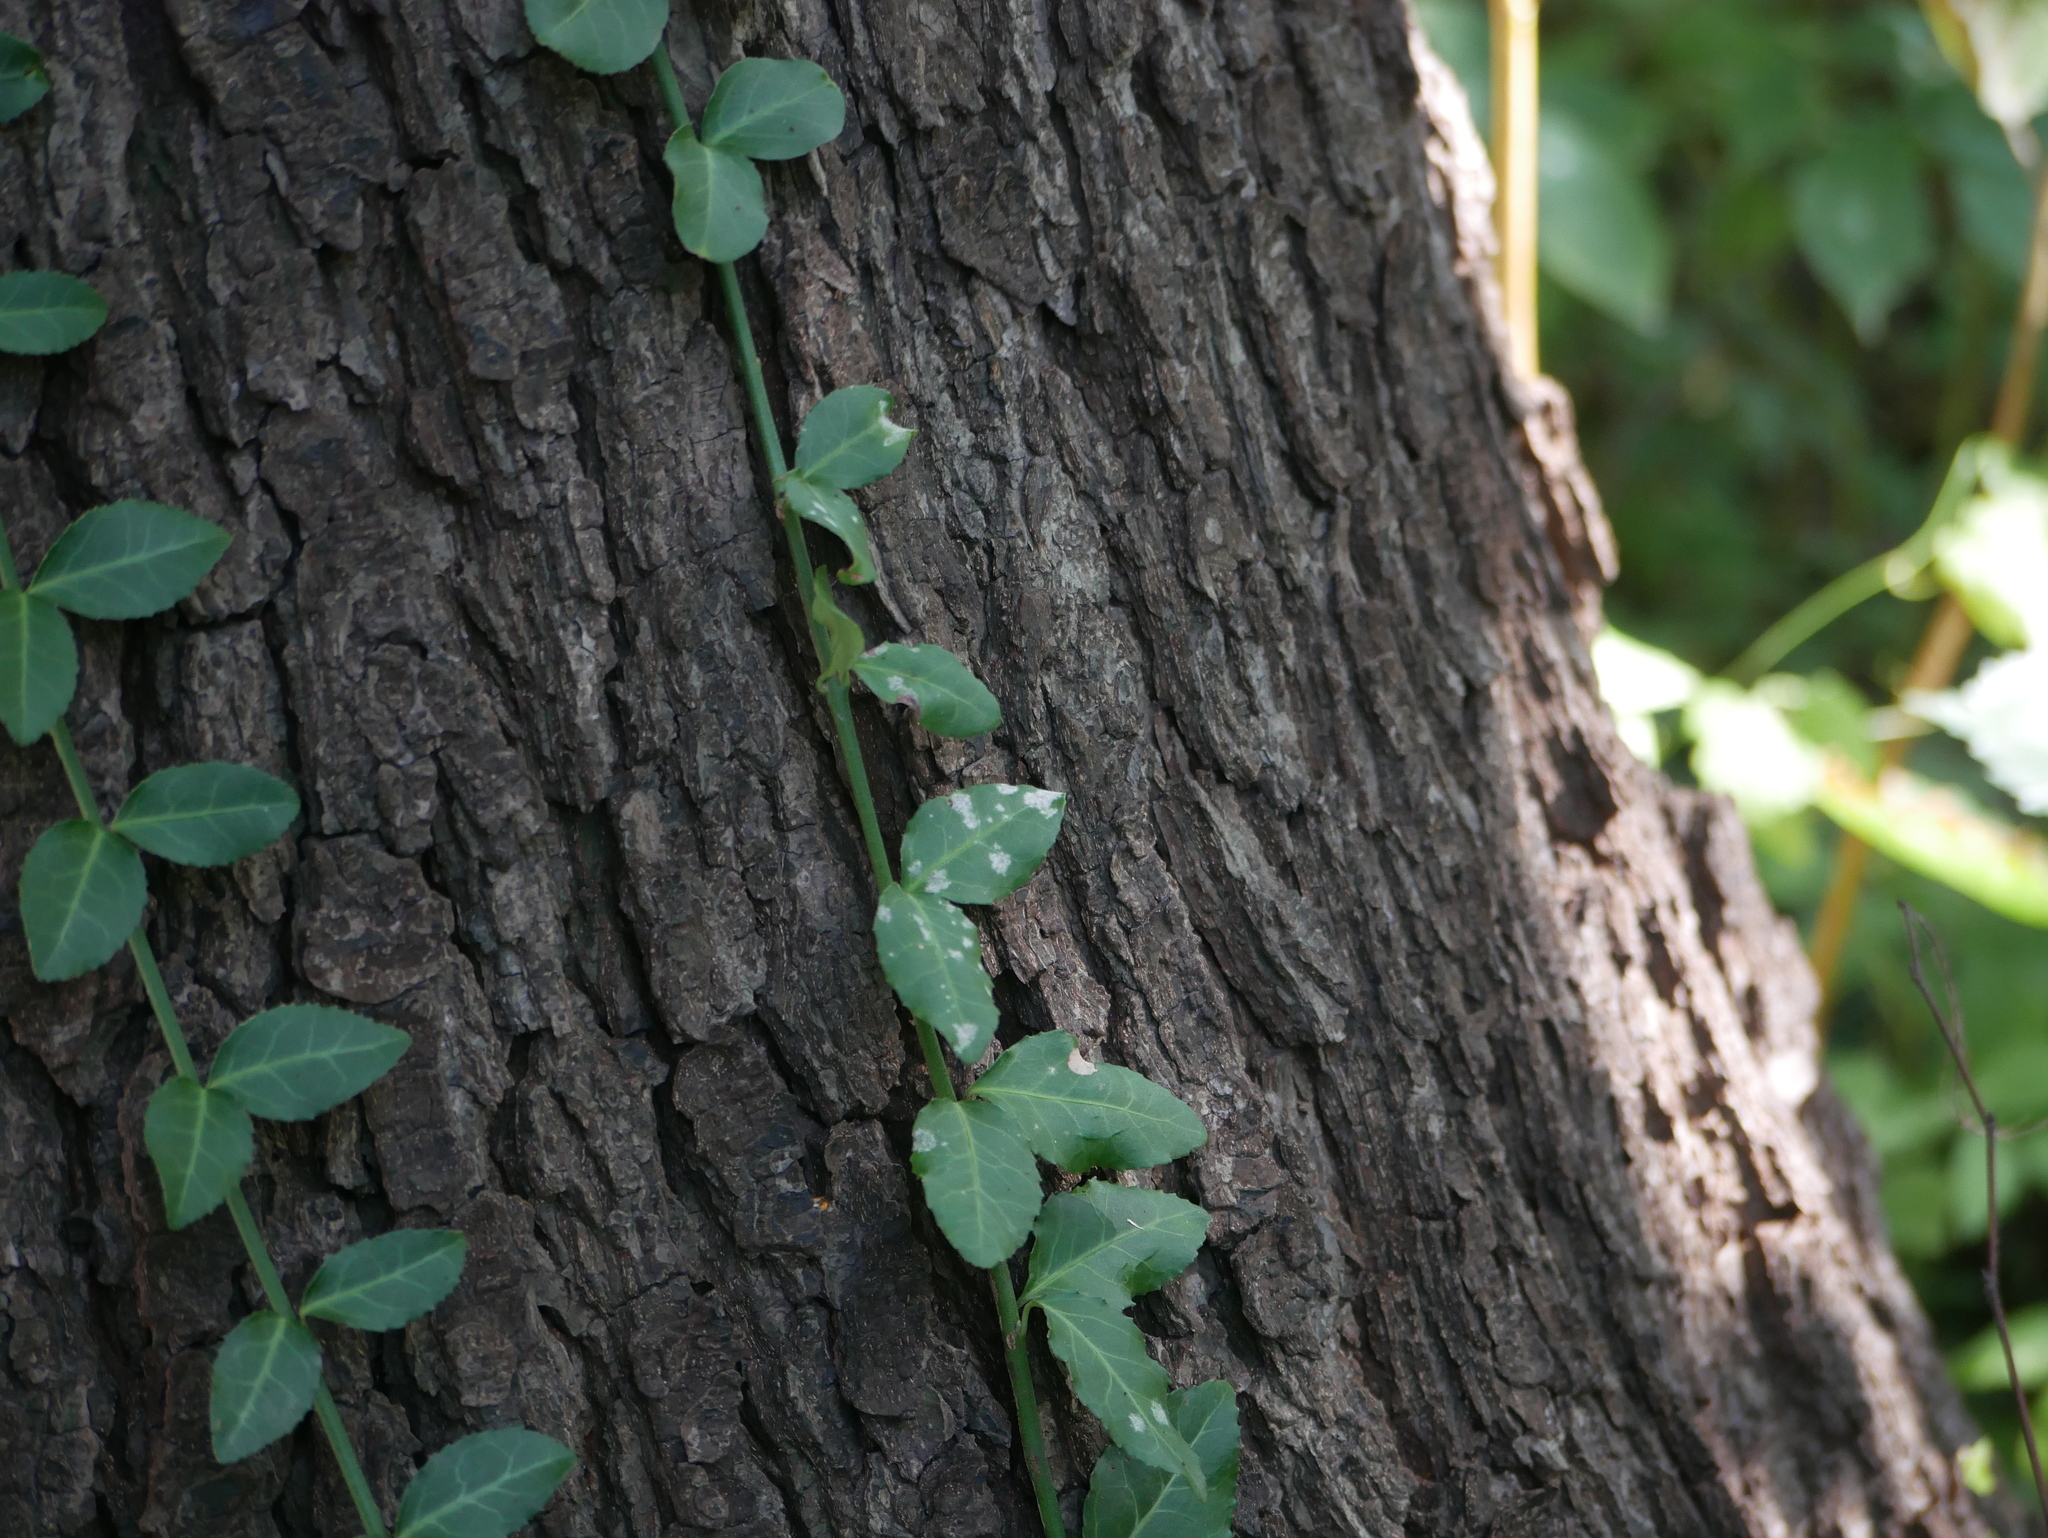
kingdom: Plantae
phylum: Tracheophyta
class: Magnoliopsida
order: Celastrales
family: Celastraceae
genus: Euonymus
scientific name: Euonymus fortunei
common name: Climbing euonymus
